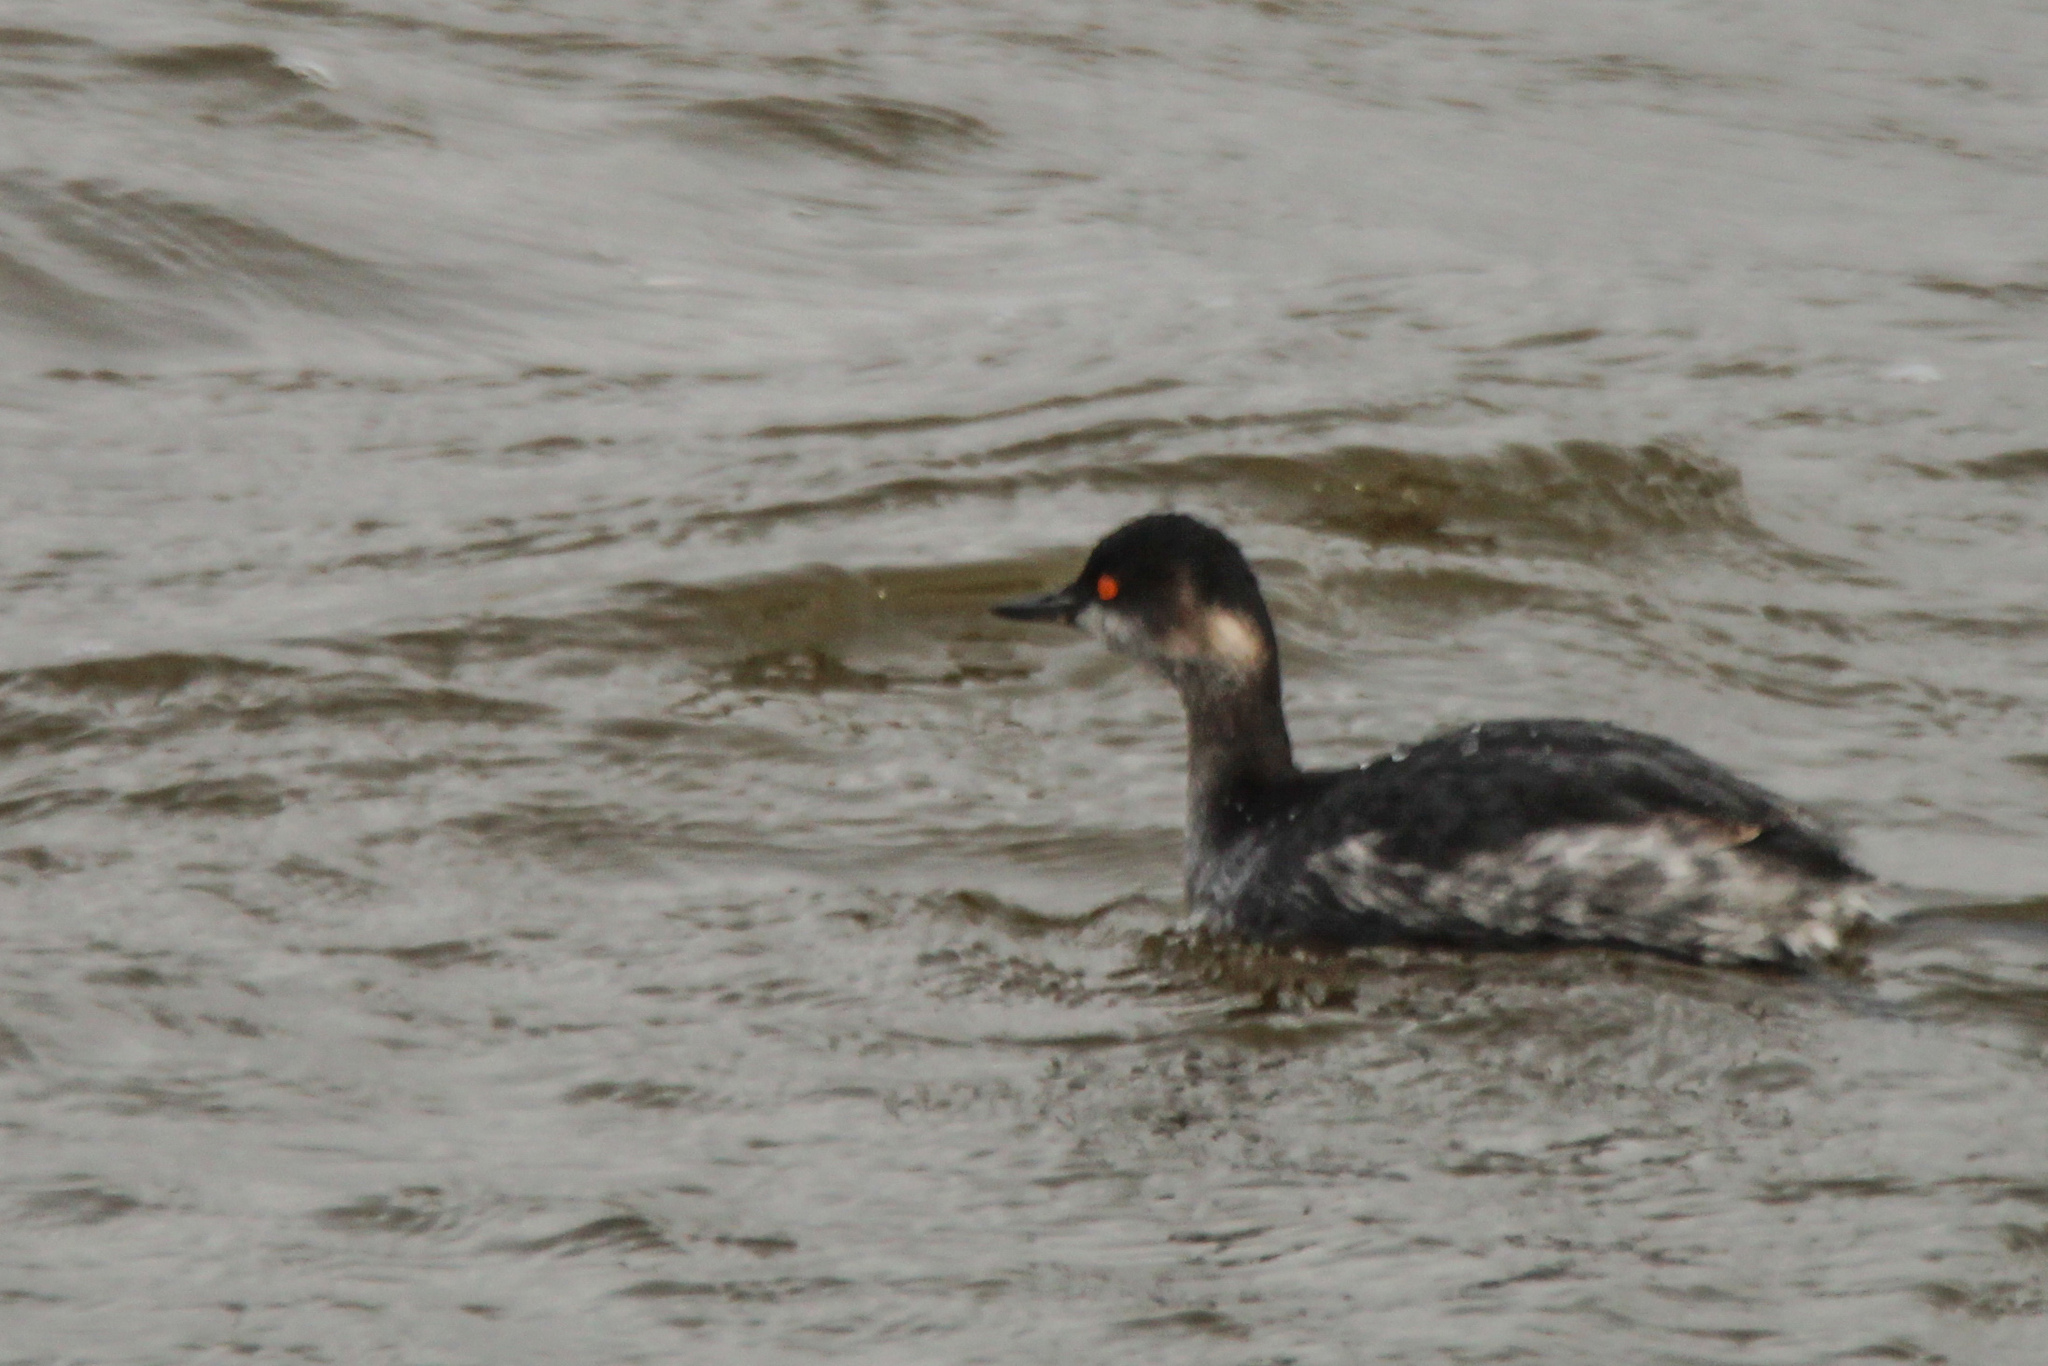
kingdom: Animalia
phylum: Chordata
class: Aves
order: Podicipediformes
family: Podicipedidae
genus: Podiceps
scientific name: Podiceps nigricollis
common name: Black-necked grebe
